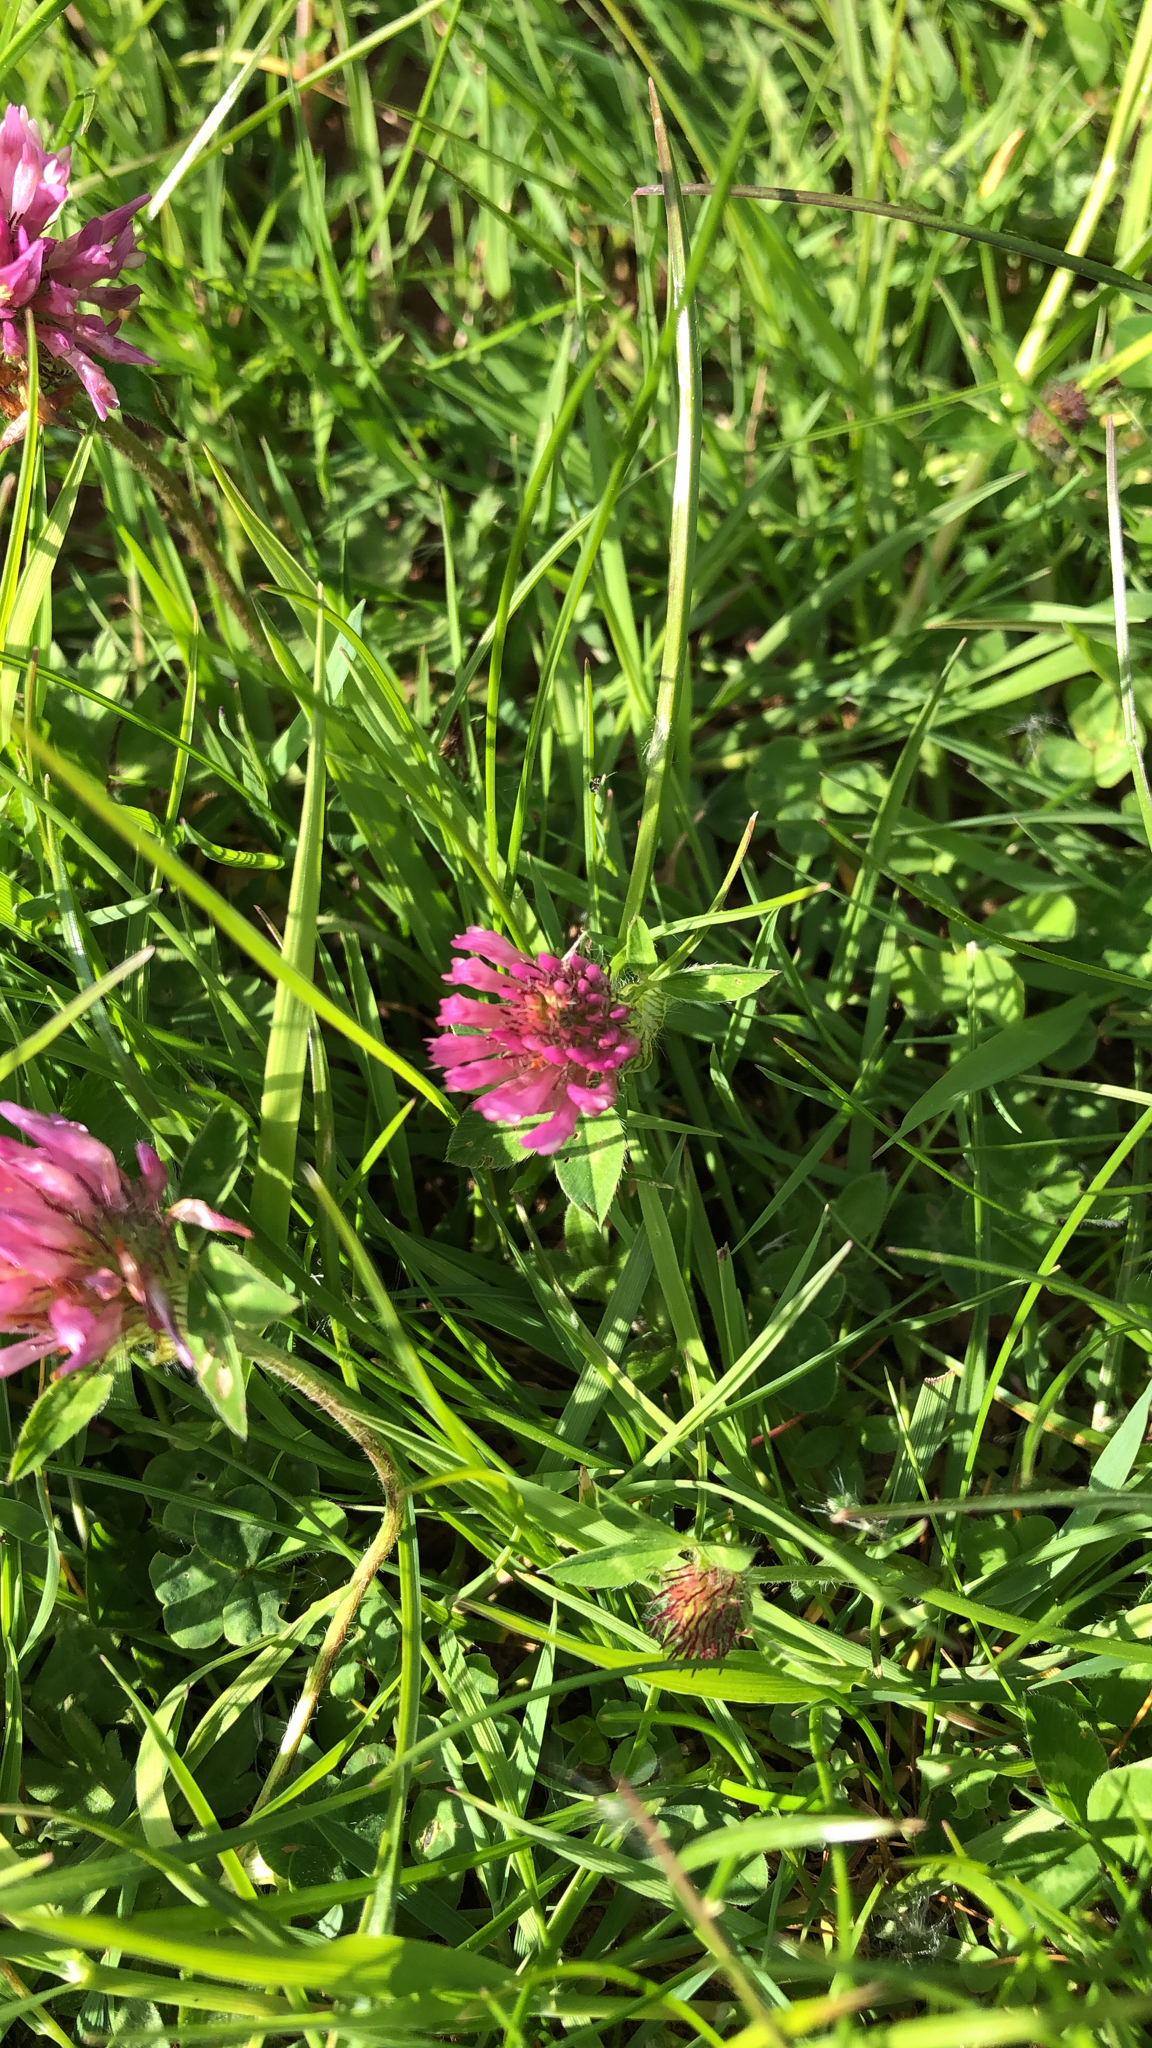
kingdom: Plantae
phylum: Tracheophyta
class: Magnoliopsida
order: Fabales
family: Fabaceae
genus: Trifolium
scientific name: Trifolium pratense
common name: Red clover
